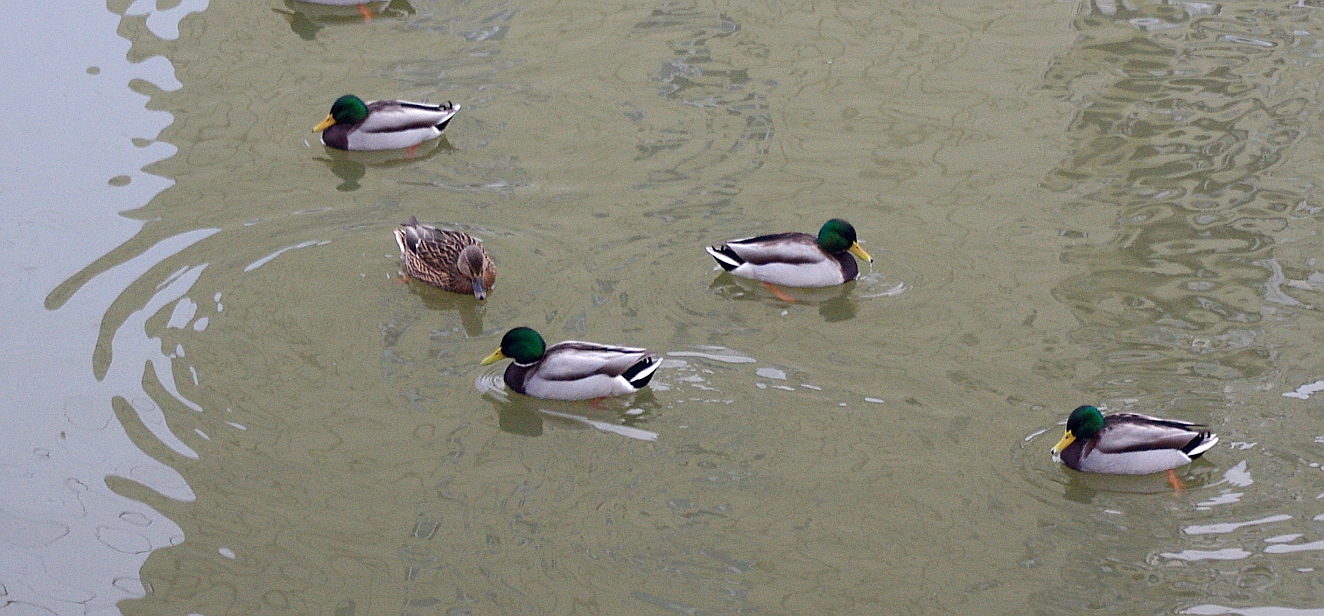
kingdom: Animalia
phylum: Chordata
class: Aves
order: Anseriformes
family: Anatidae
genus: Anas
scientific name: Anas platyrhynchos
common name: Mallard
